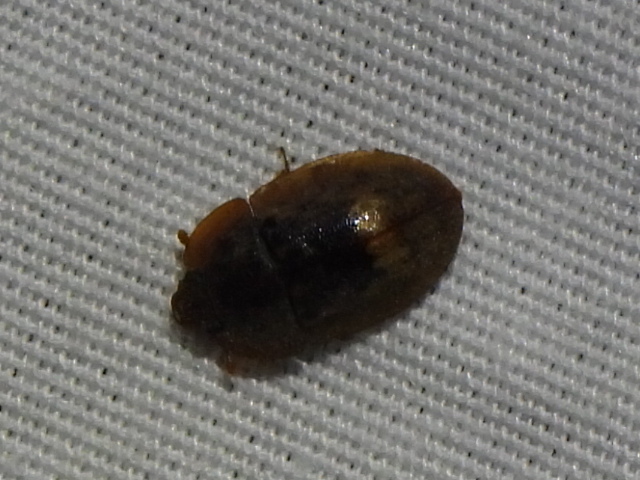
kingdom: Animalia
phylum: Arthropoda
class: Insecta
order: Coleoptera
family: Nitidulidae
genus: Lobiopa
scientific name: Lobiopa undulata
